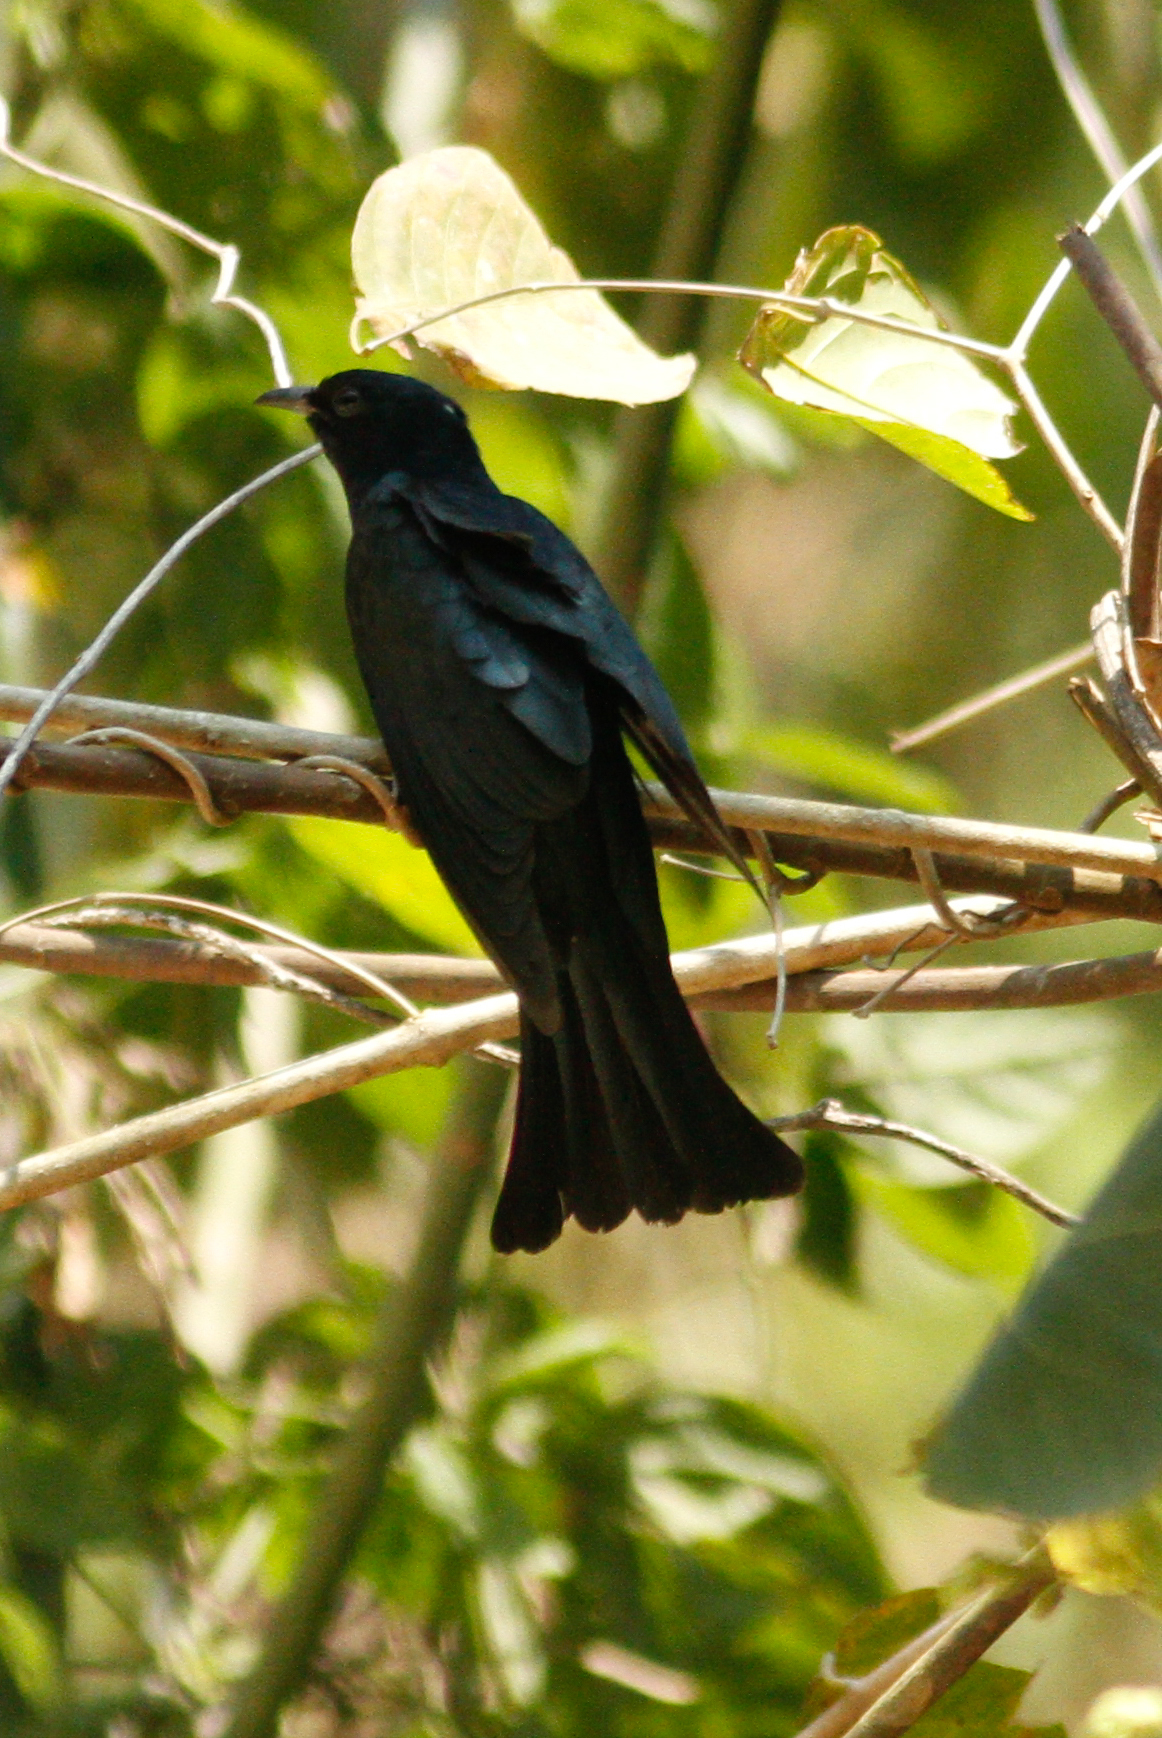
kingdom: Animalia
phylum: Chordata
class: Aves
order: Cuculiformes
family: Cuculidae
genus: Surniculus
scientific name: Surniculus lugubris
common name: Square-tailed drongo-cuckoo
